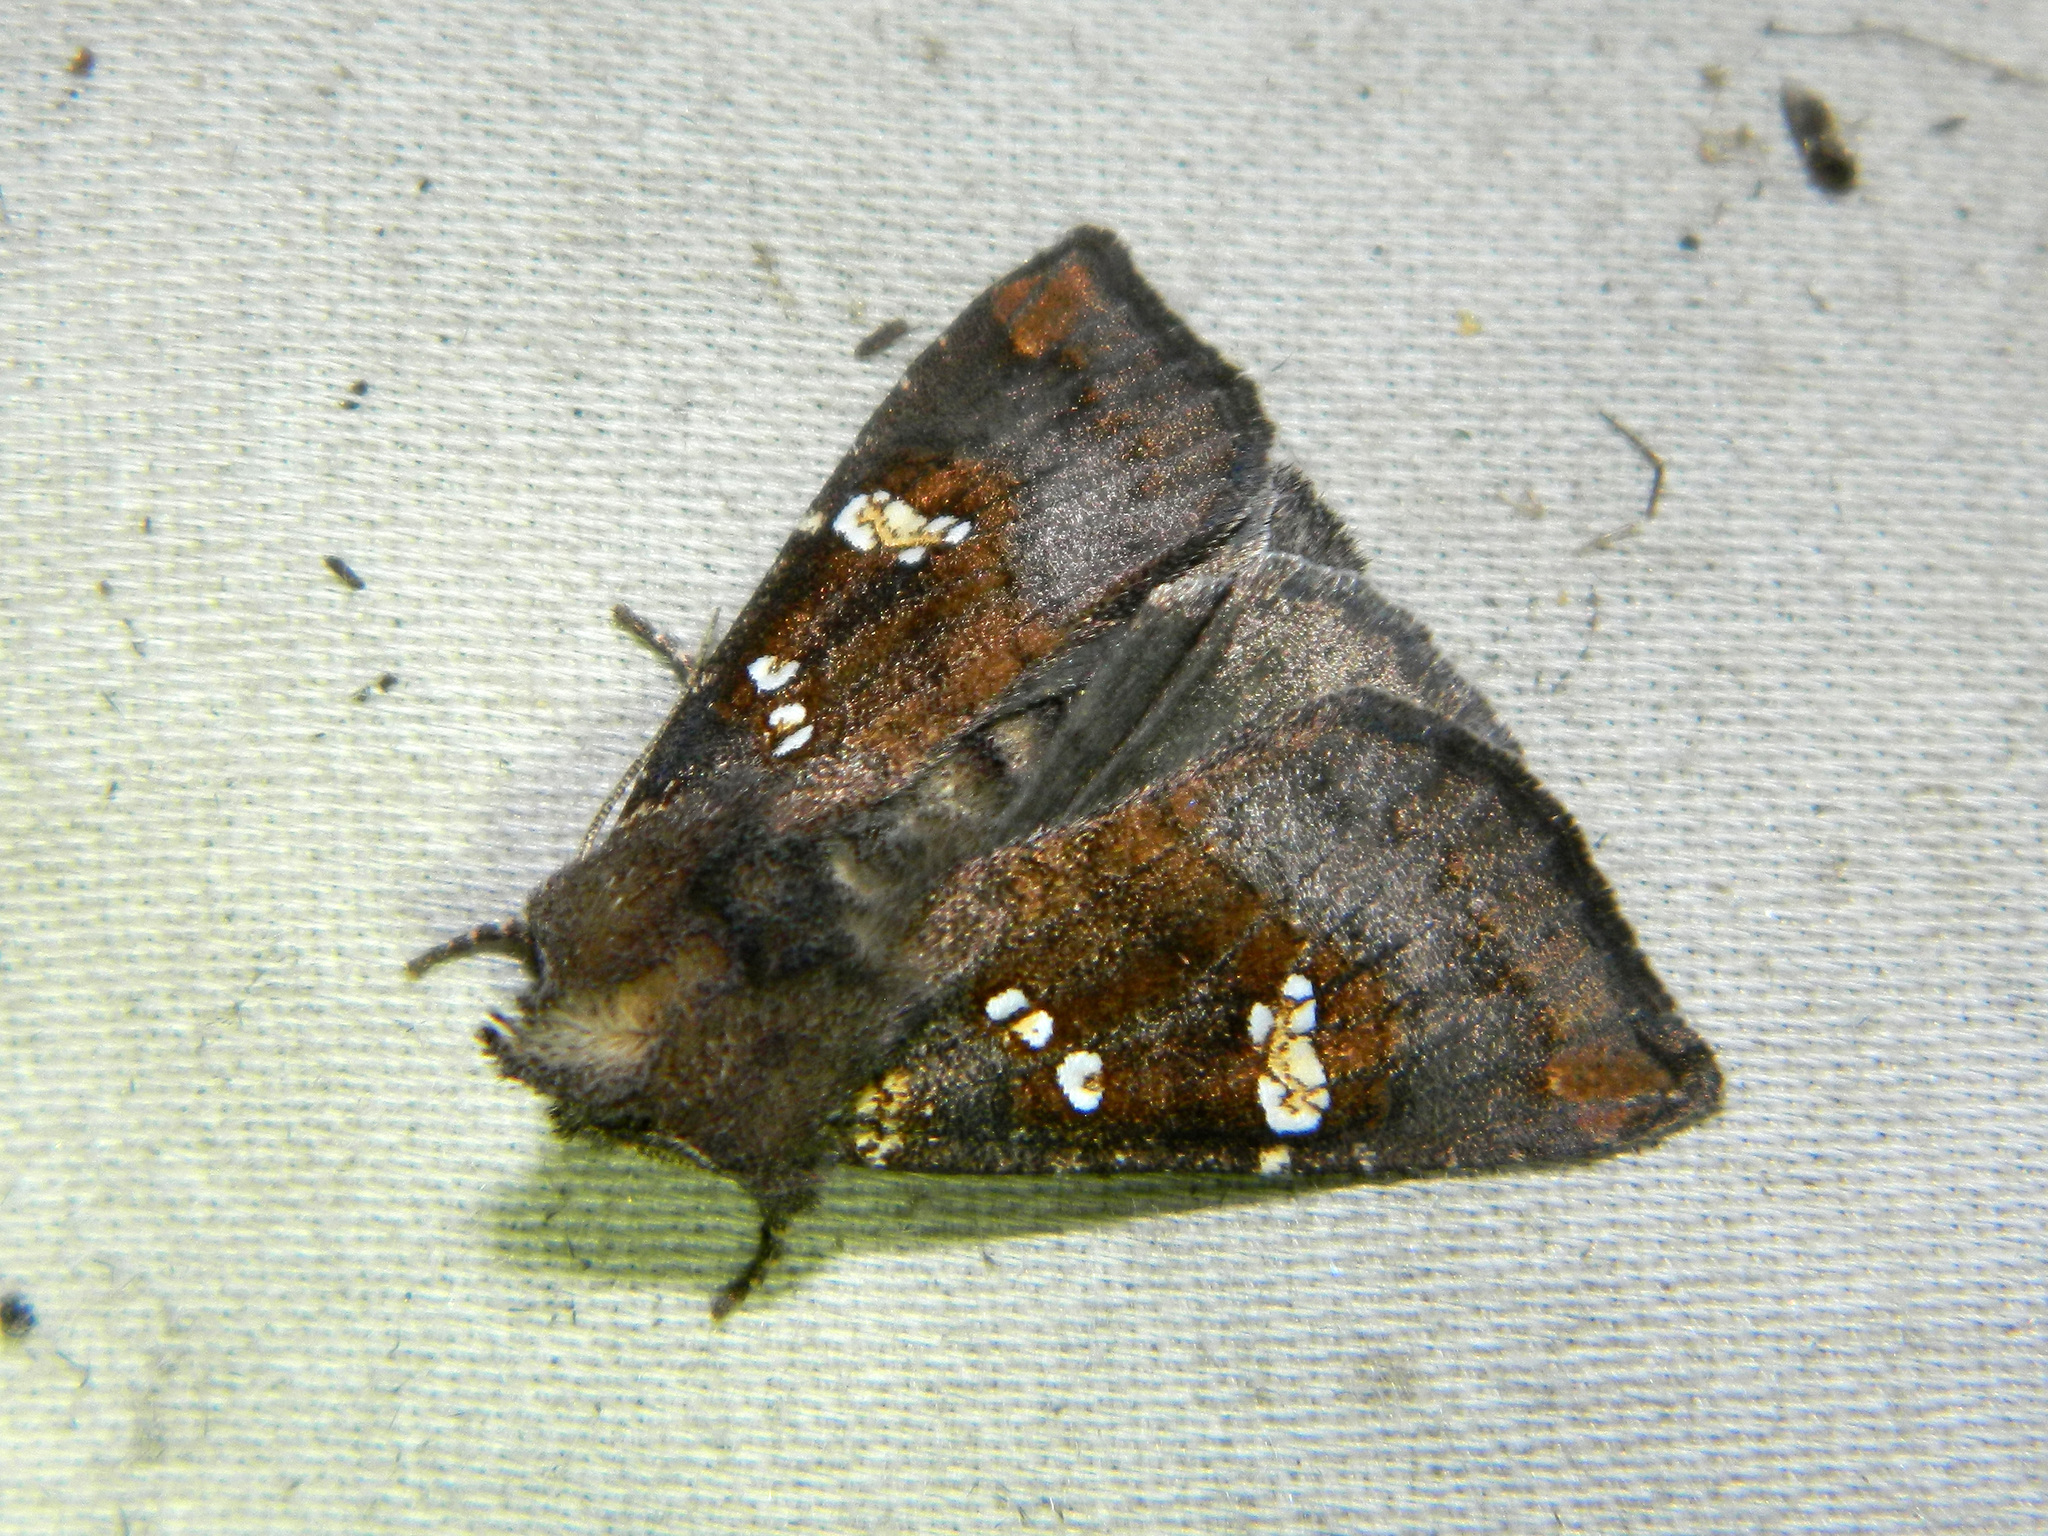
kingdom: Animalia
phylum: Arthropoda
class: Insecta
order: Lepidoptera
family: Noctuidae
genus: Papaipema
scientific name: Papaipema unimoda
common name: Meadow rue borer moth
